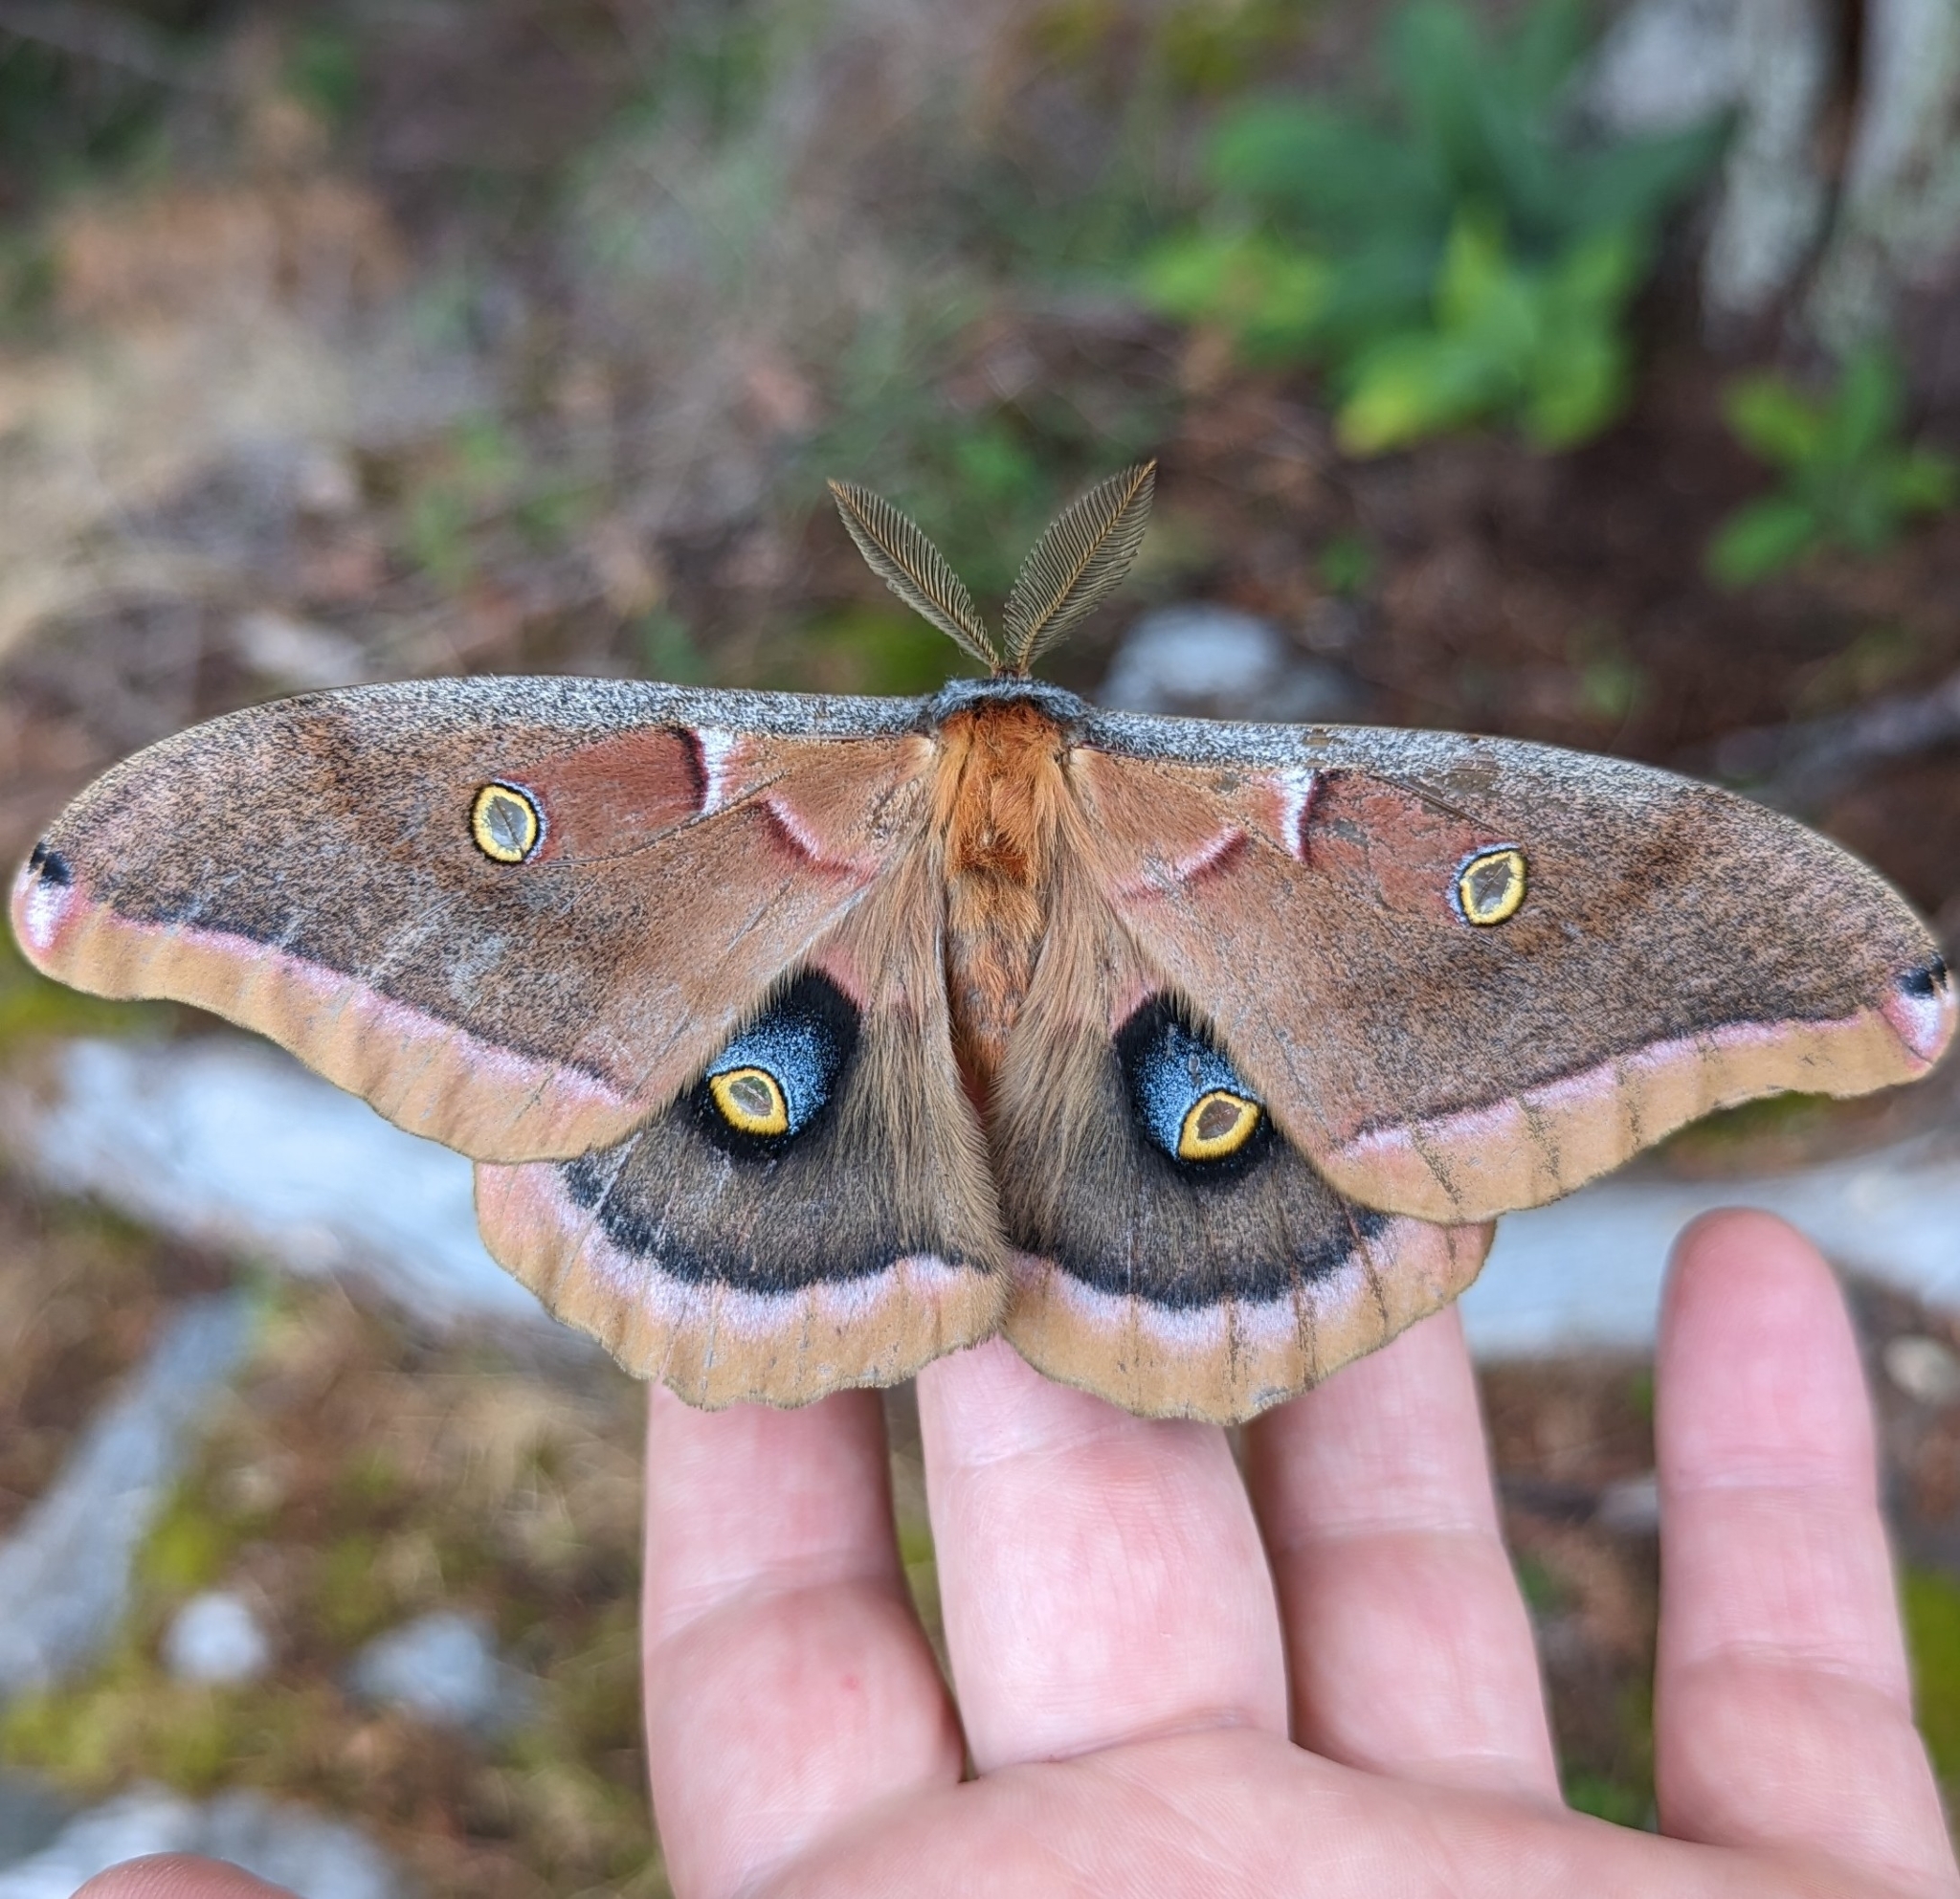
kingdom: Animalia
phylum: Arthropoda
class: Insecta
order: Lepidoptera
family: Saturniidae
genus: Antheraea
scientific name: Antheraea polyphemus
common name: Polyphemus moth
